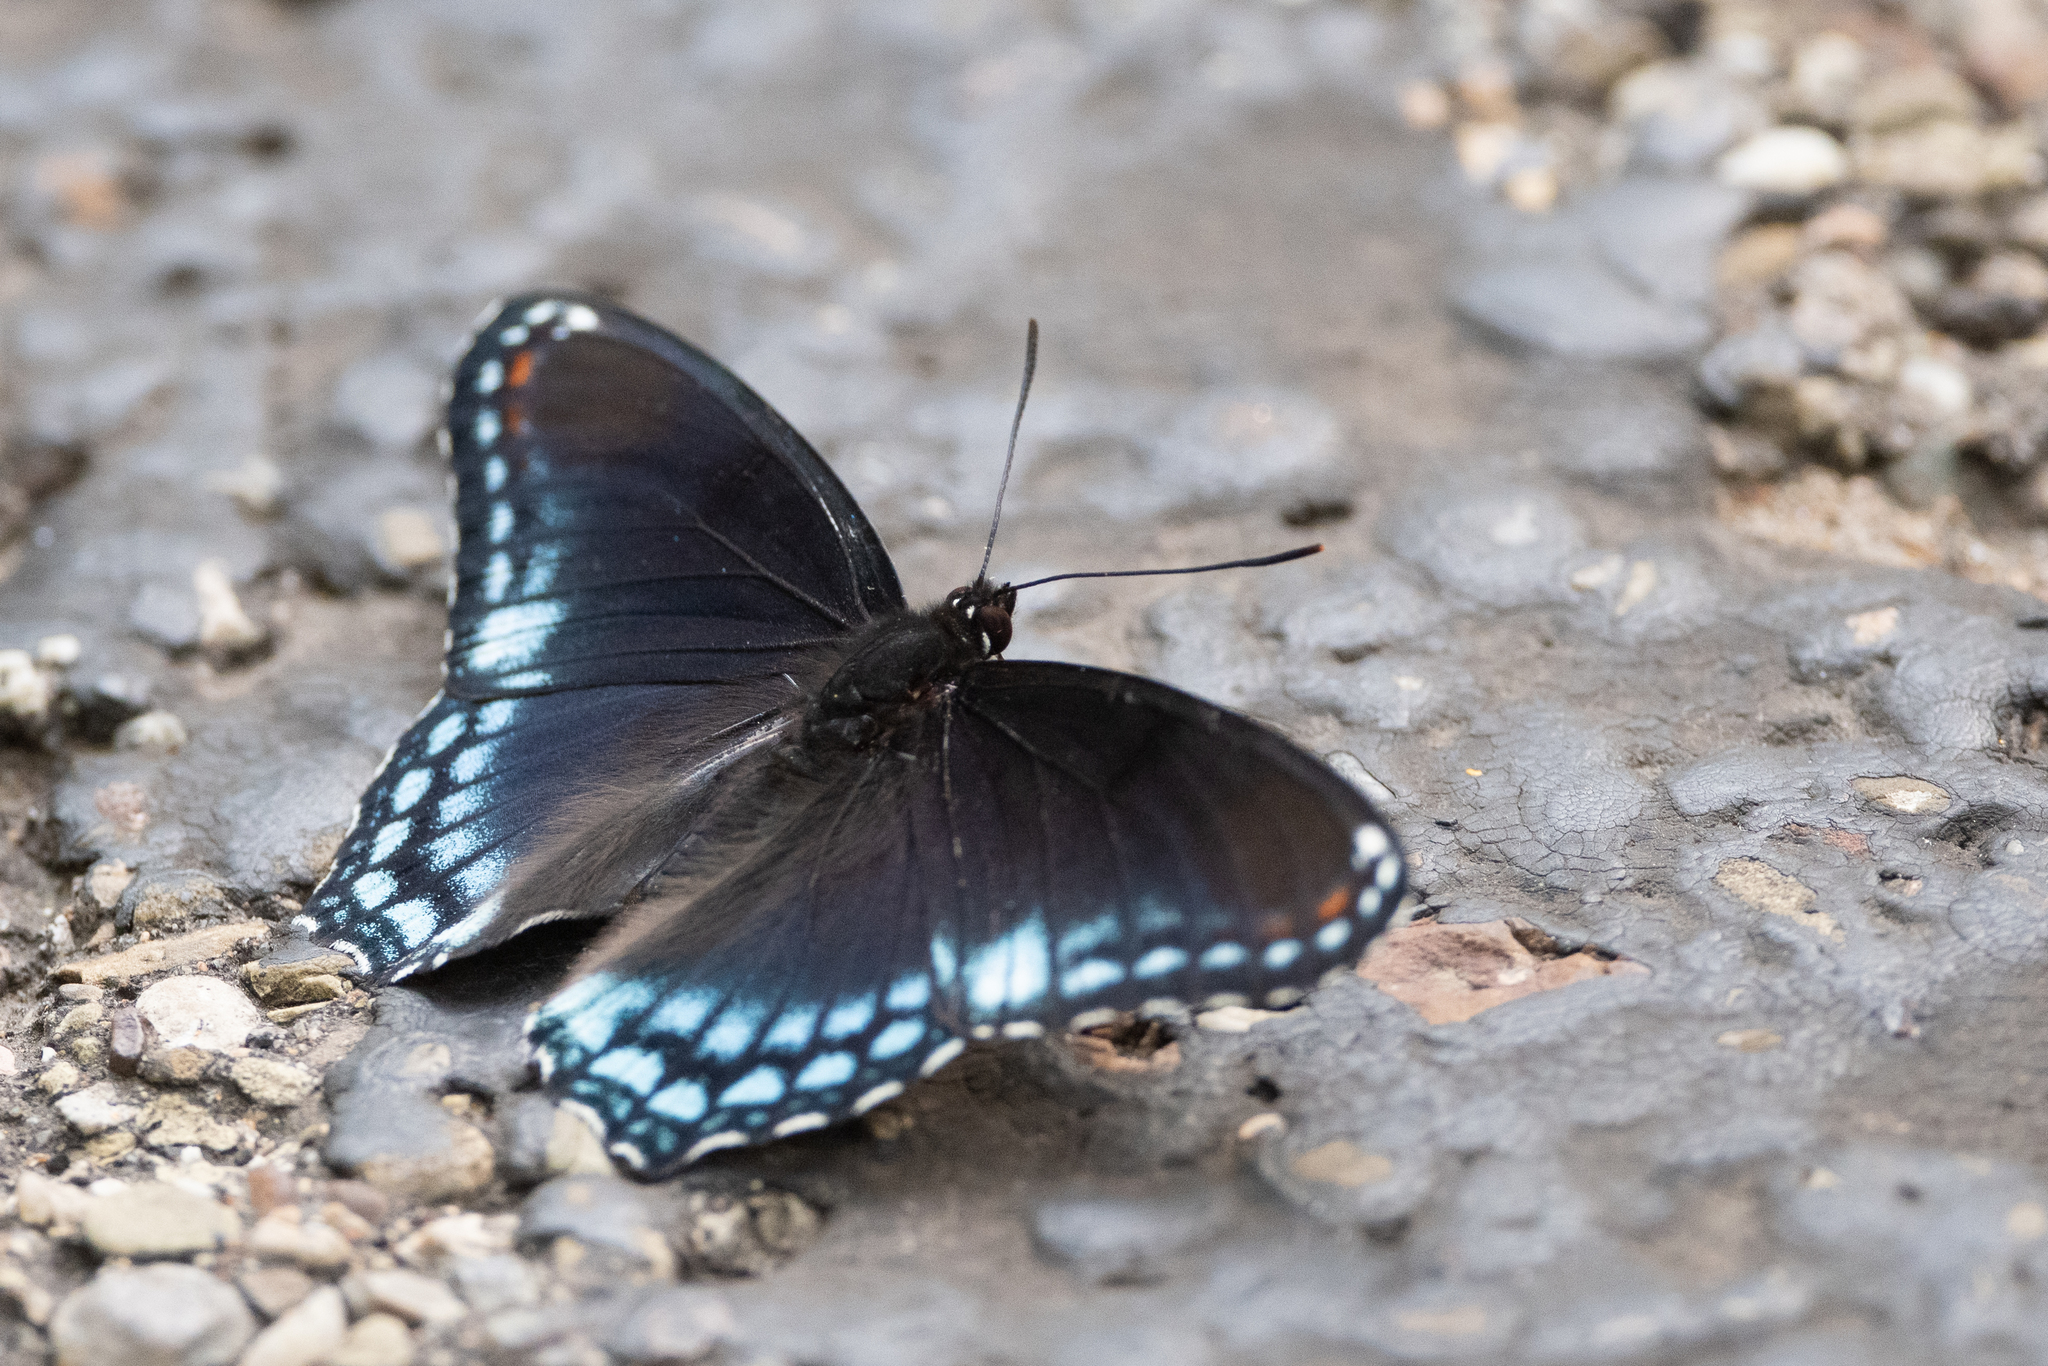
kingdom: Animalia
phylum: Arthropoda
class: Insecta
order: Lepidoptera
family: Nymphalidae
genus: Limenitis
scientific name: Limenitis astyanax
